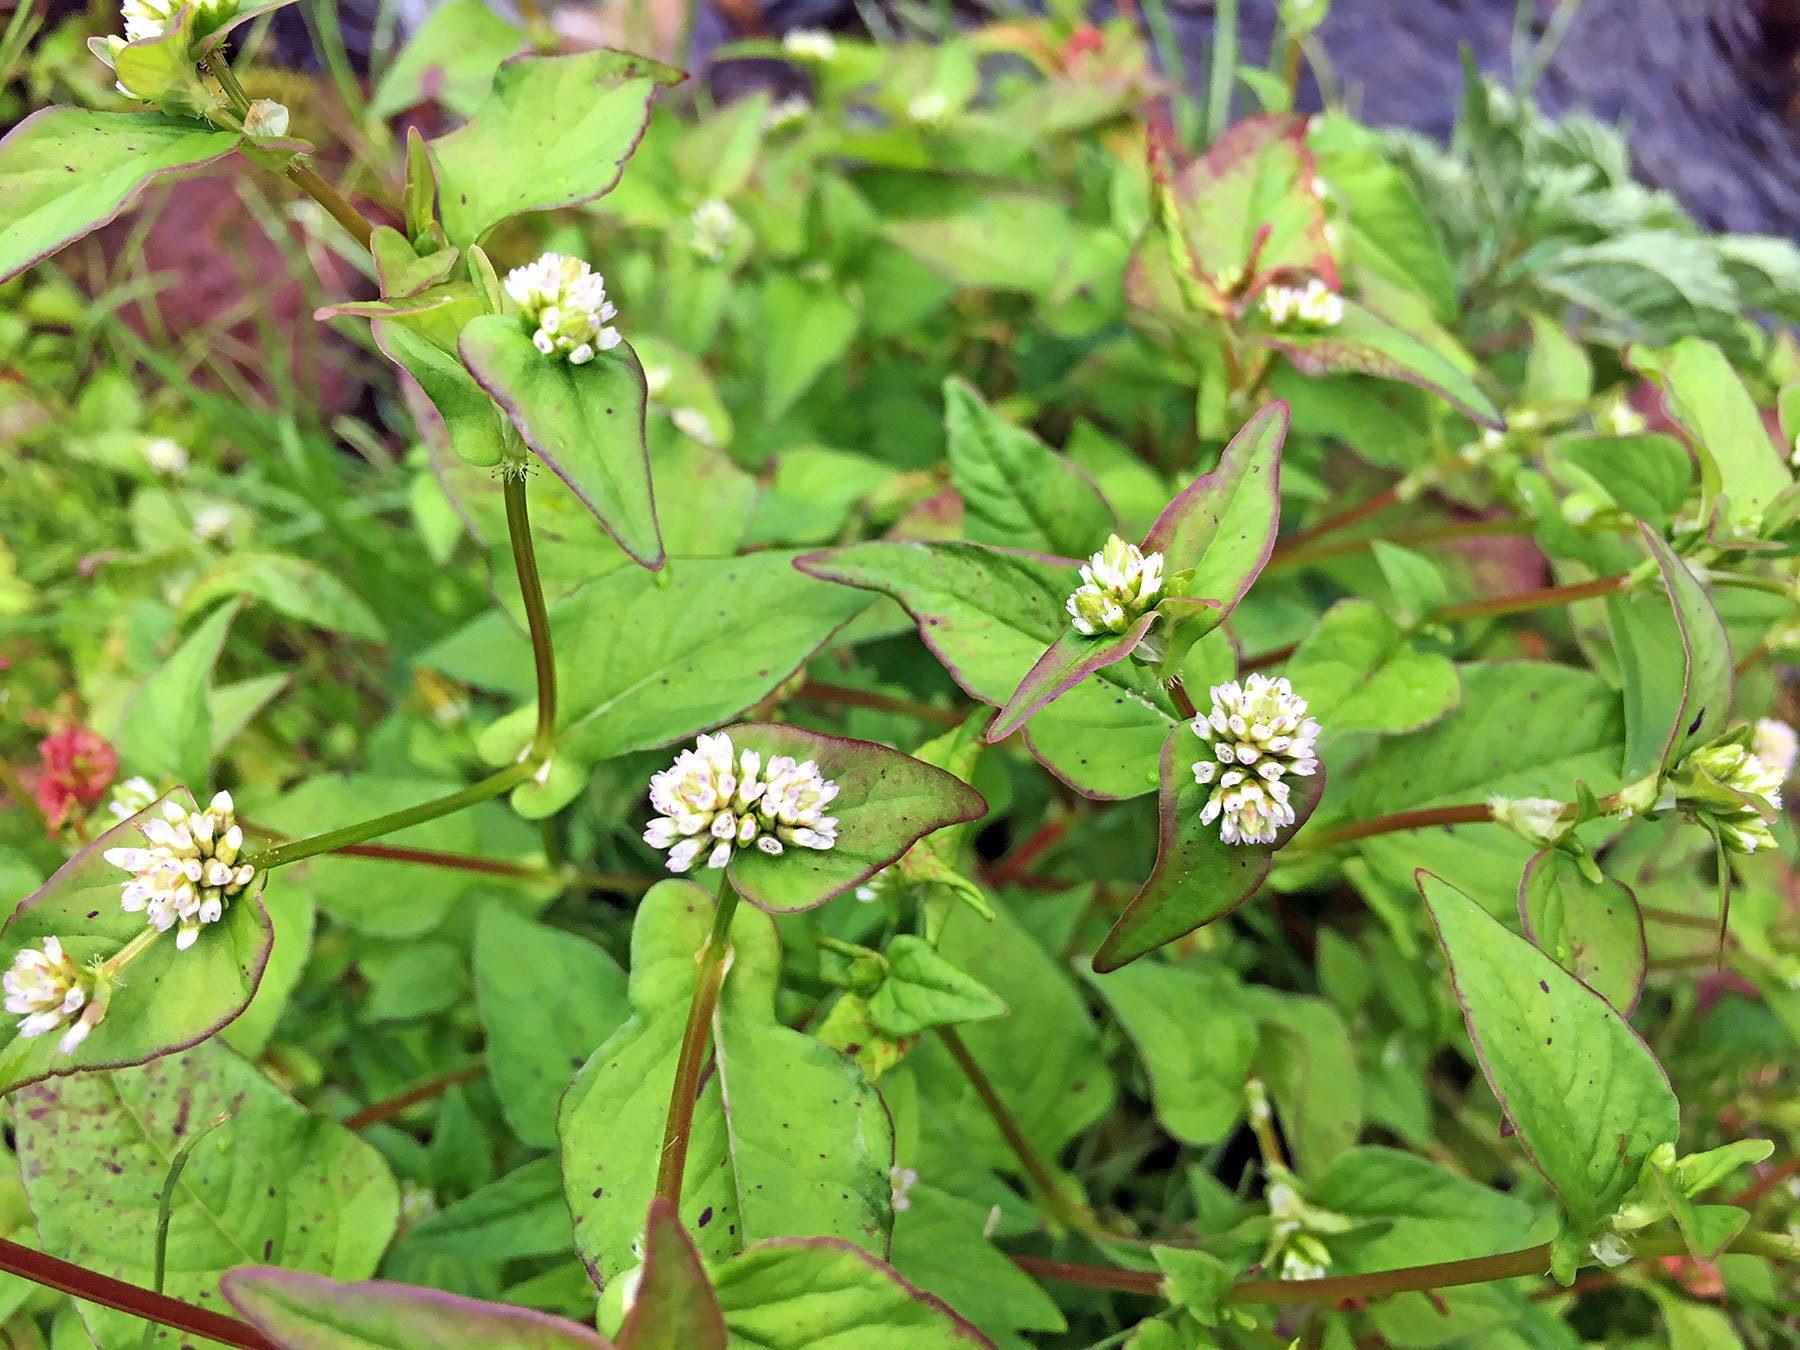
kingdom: Plantae
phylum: Tracheophyta
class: Magnoliopsida
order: Caryophyllales
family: Polygonaceae
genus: Persicaria
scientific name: Persicaria thunbergii
